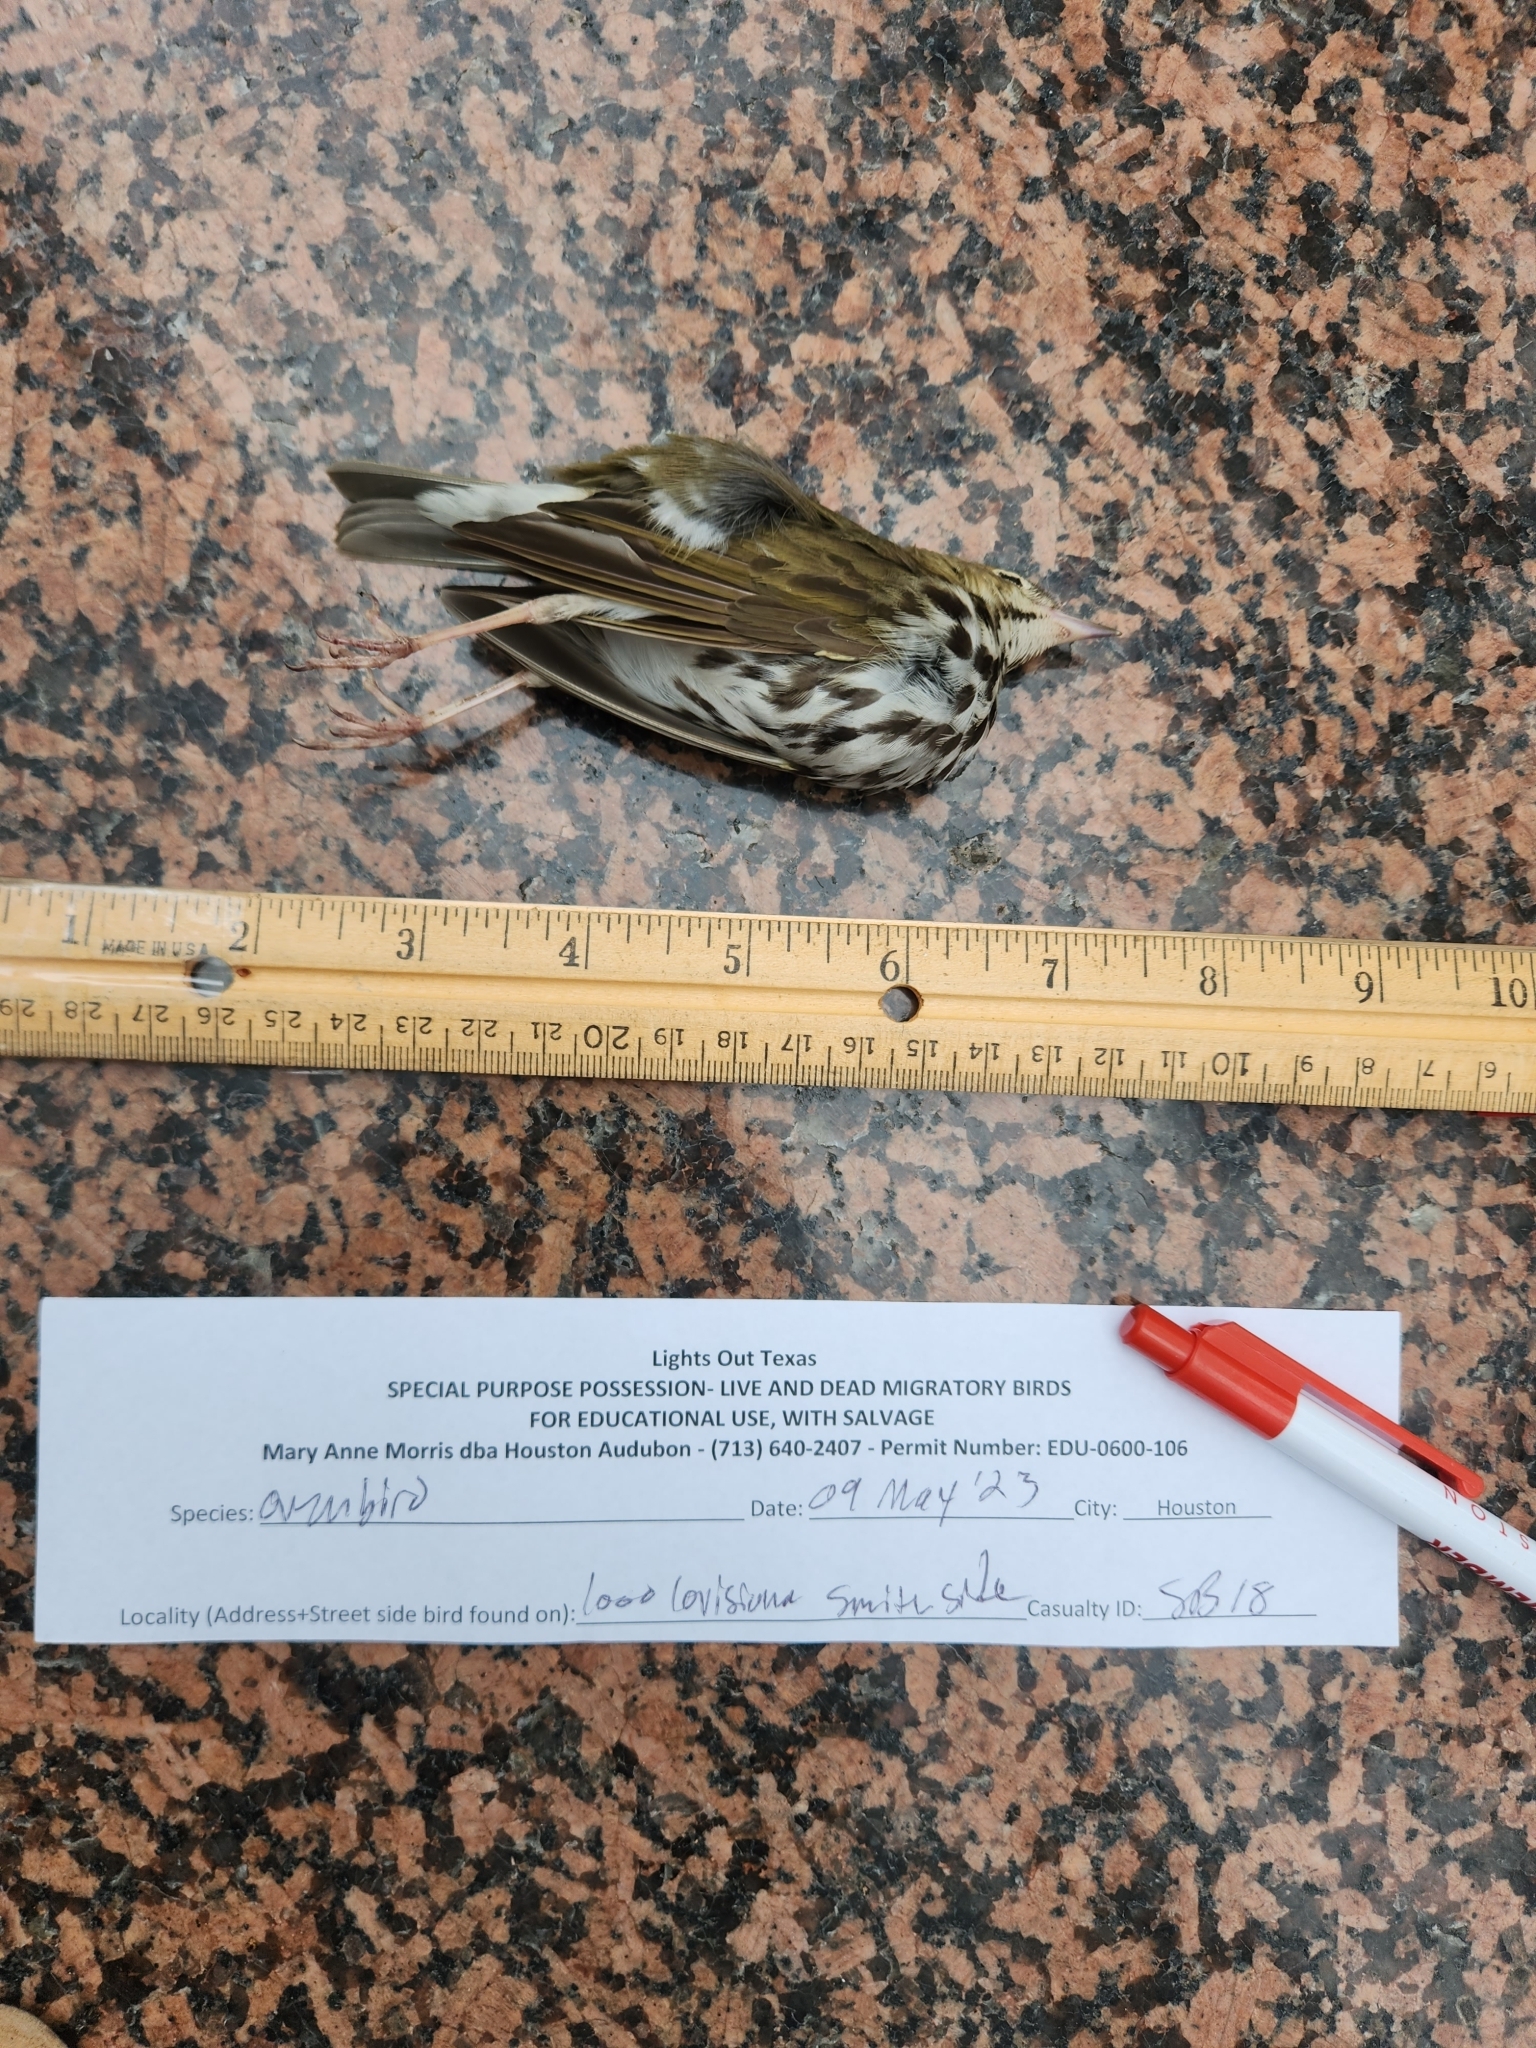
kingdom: Animalia
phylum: Chordata
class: Aves
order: Passeriformes
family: Parulidae
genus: Seiurus
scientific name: Seiurus aurocapilla
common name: Ovenbird
